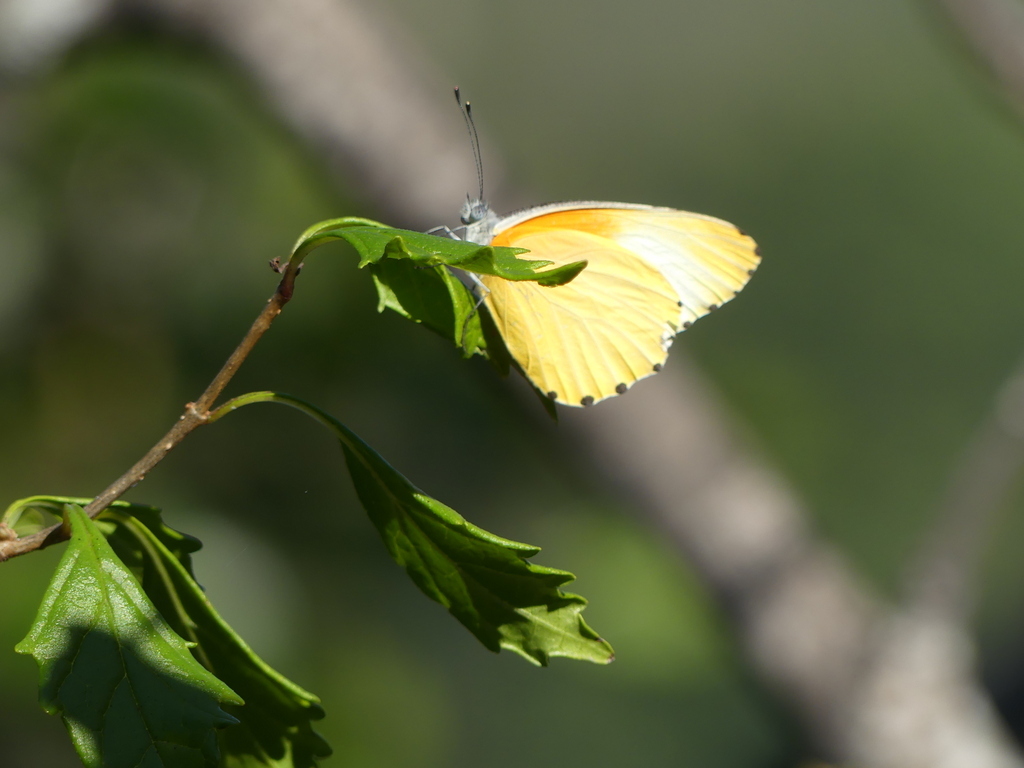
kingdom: Animalia
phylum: Arthropoda
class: Insecta
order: Lepidoptera
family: Pieridae
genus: Mylothris
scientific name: Mylothris agathina
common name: Eastern dotted border
